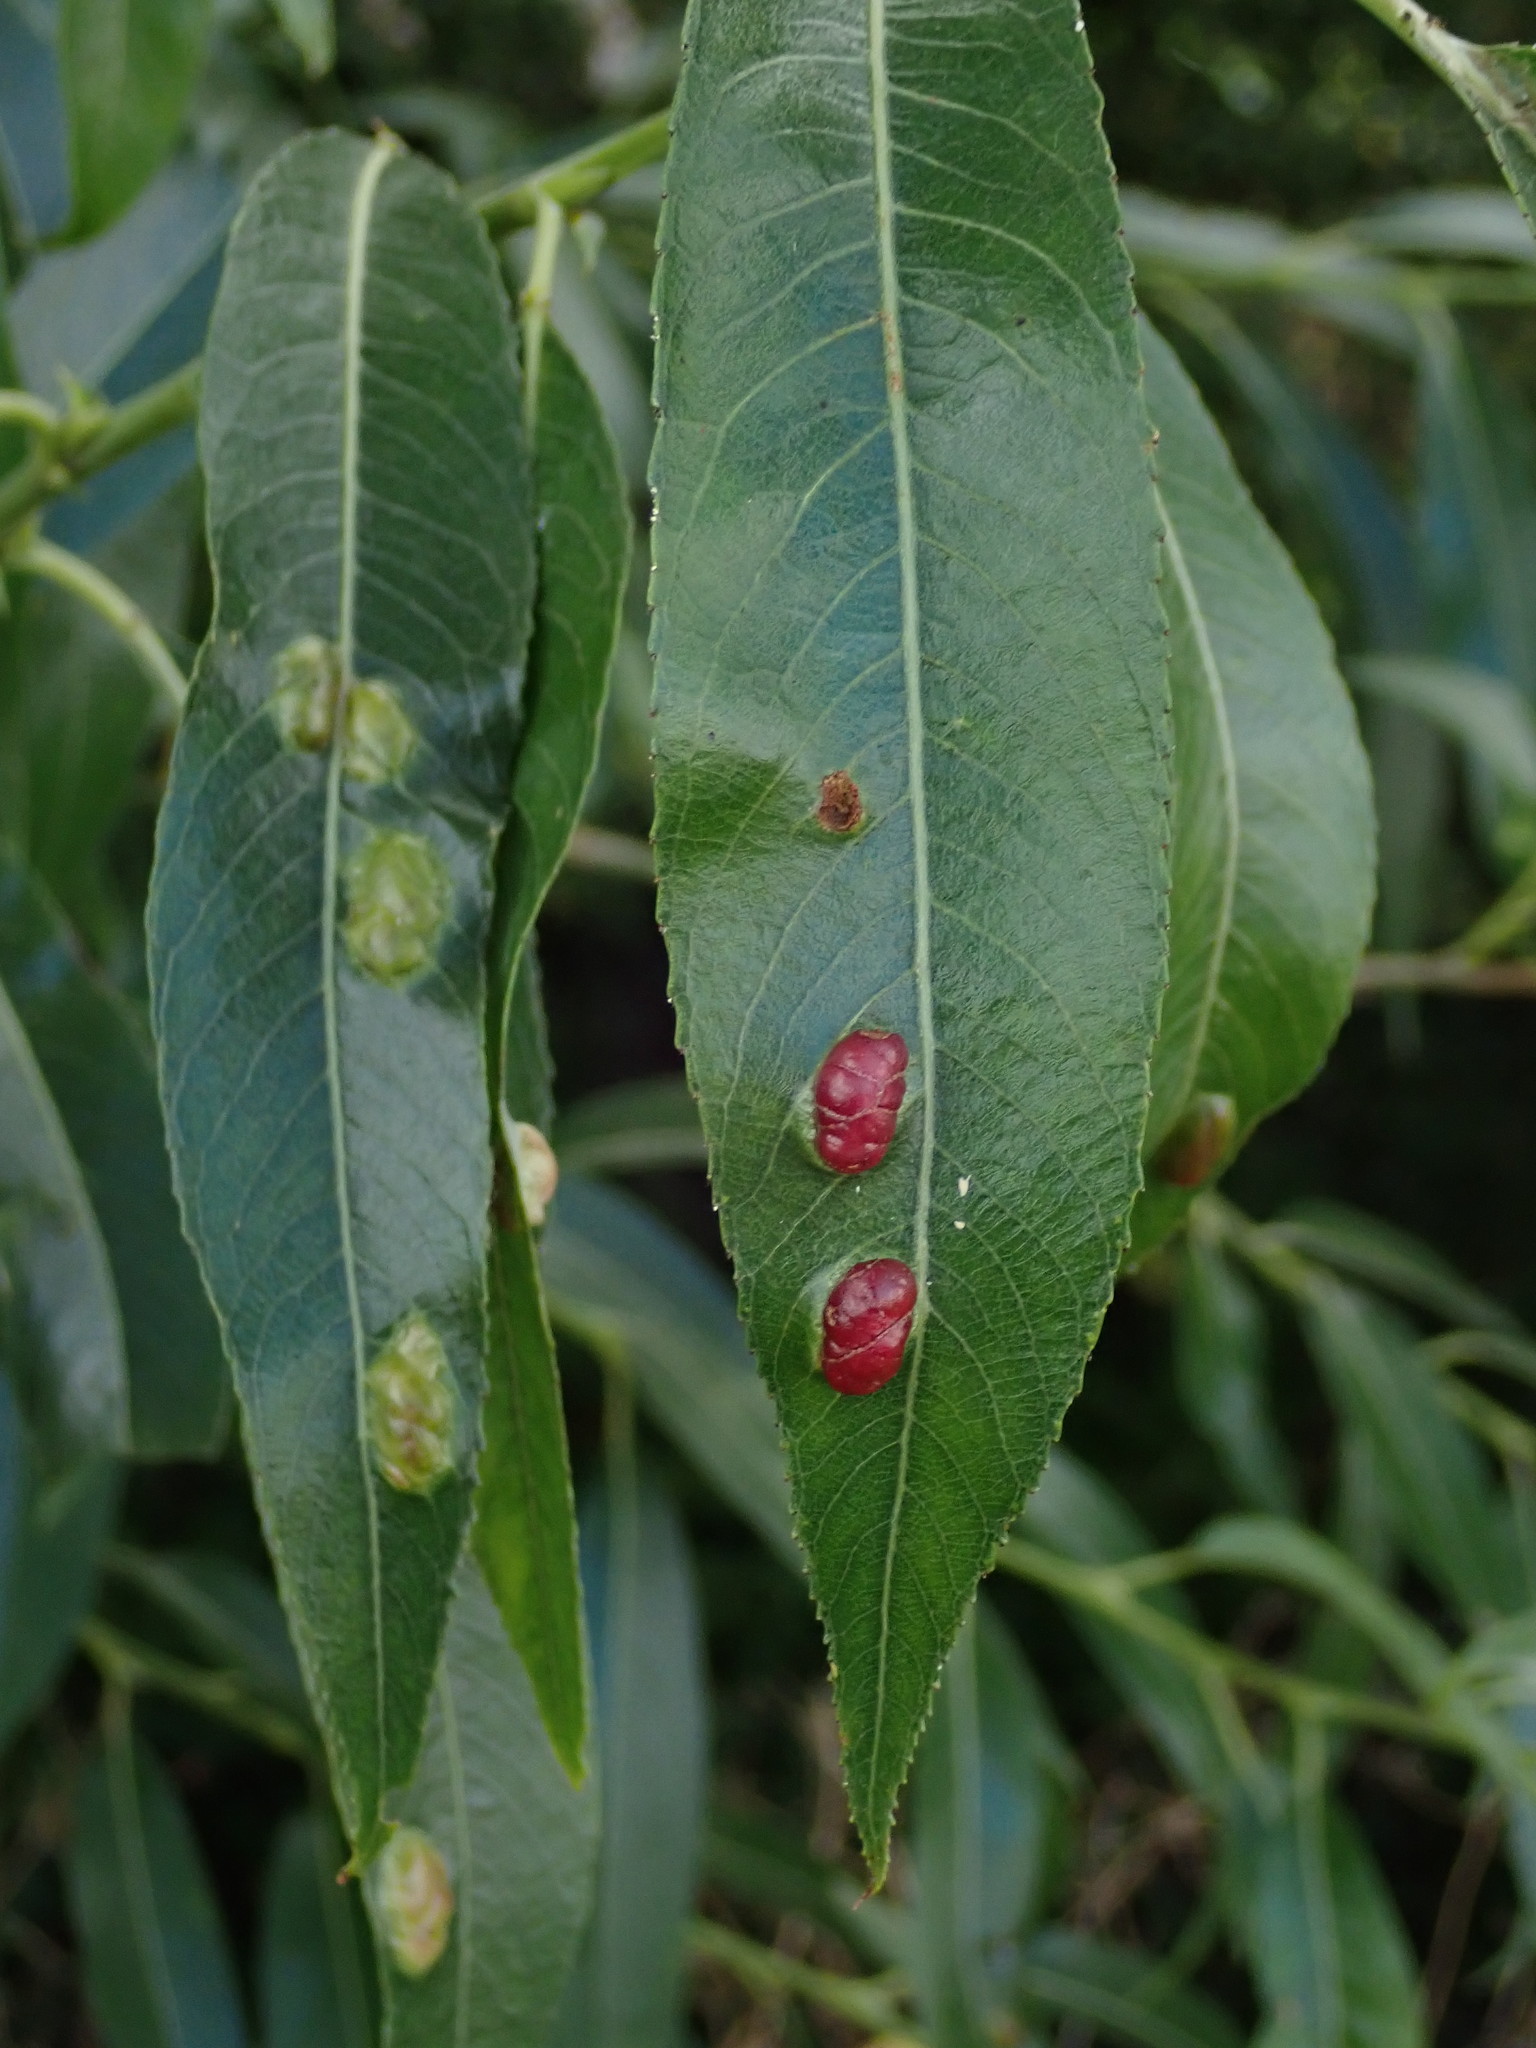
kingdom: Animalia
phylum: Arthropoda
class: Insecta
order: Hymenoptera
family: Tenthredinidae
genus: Pontania
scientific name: Pontania proxima
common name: Common sawfly
